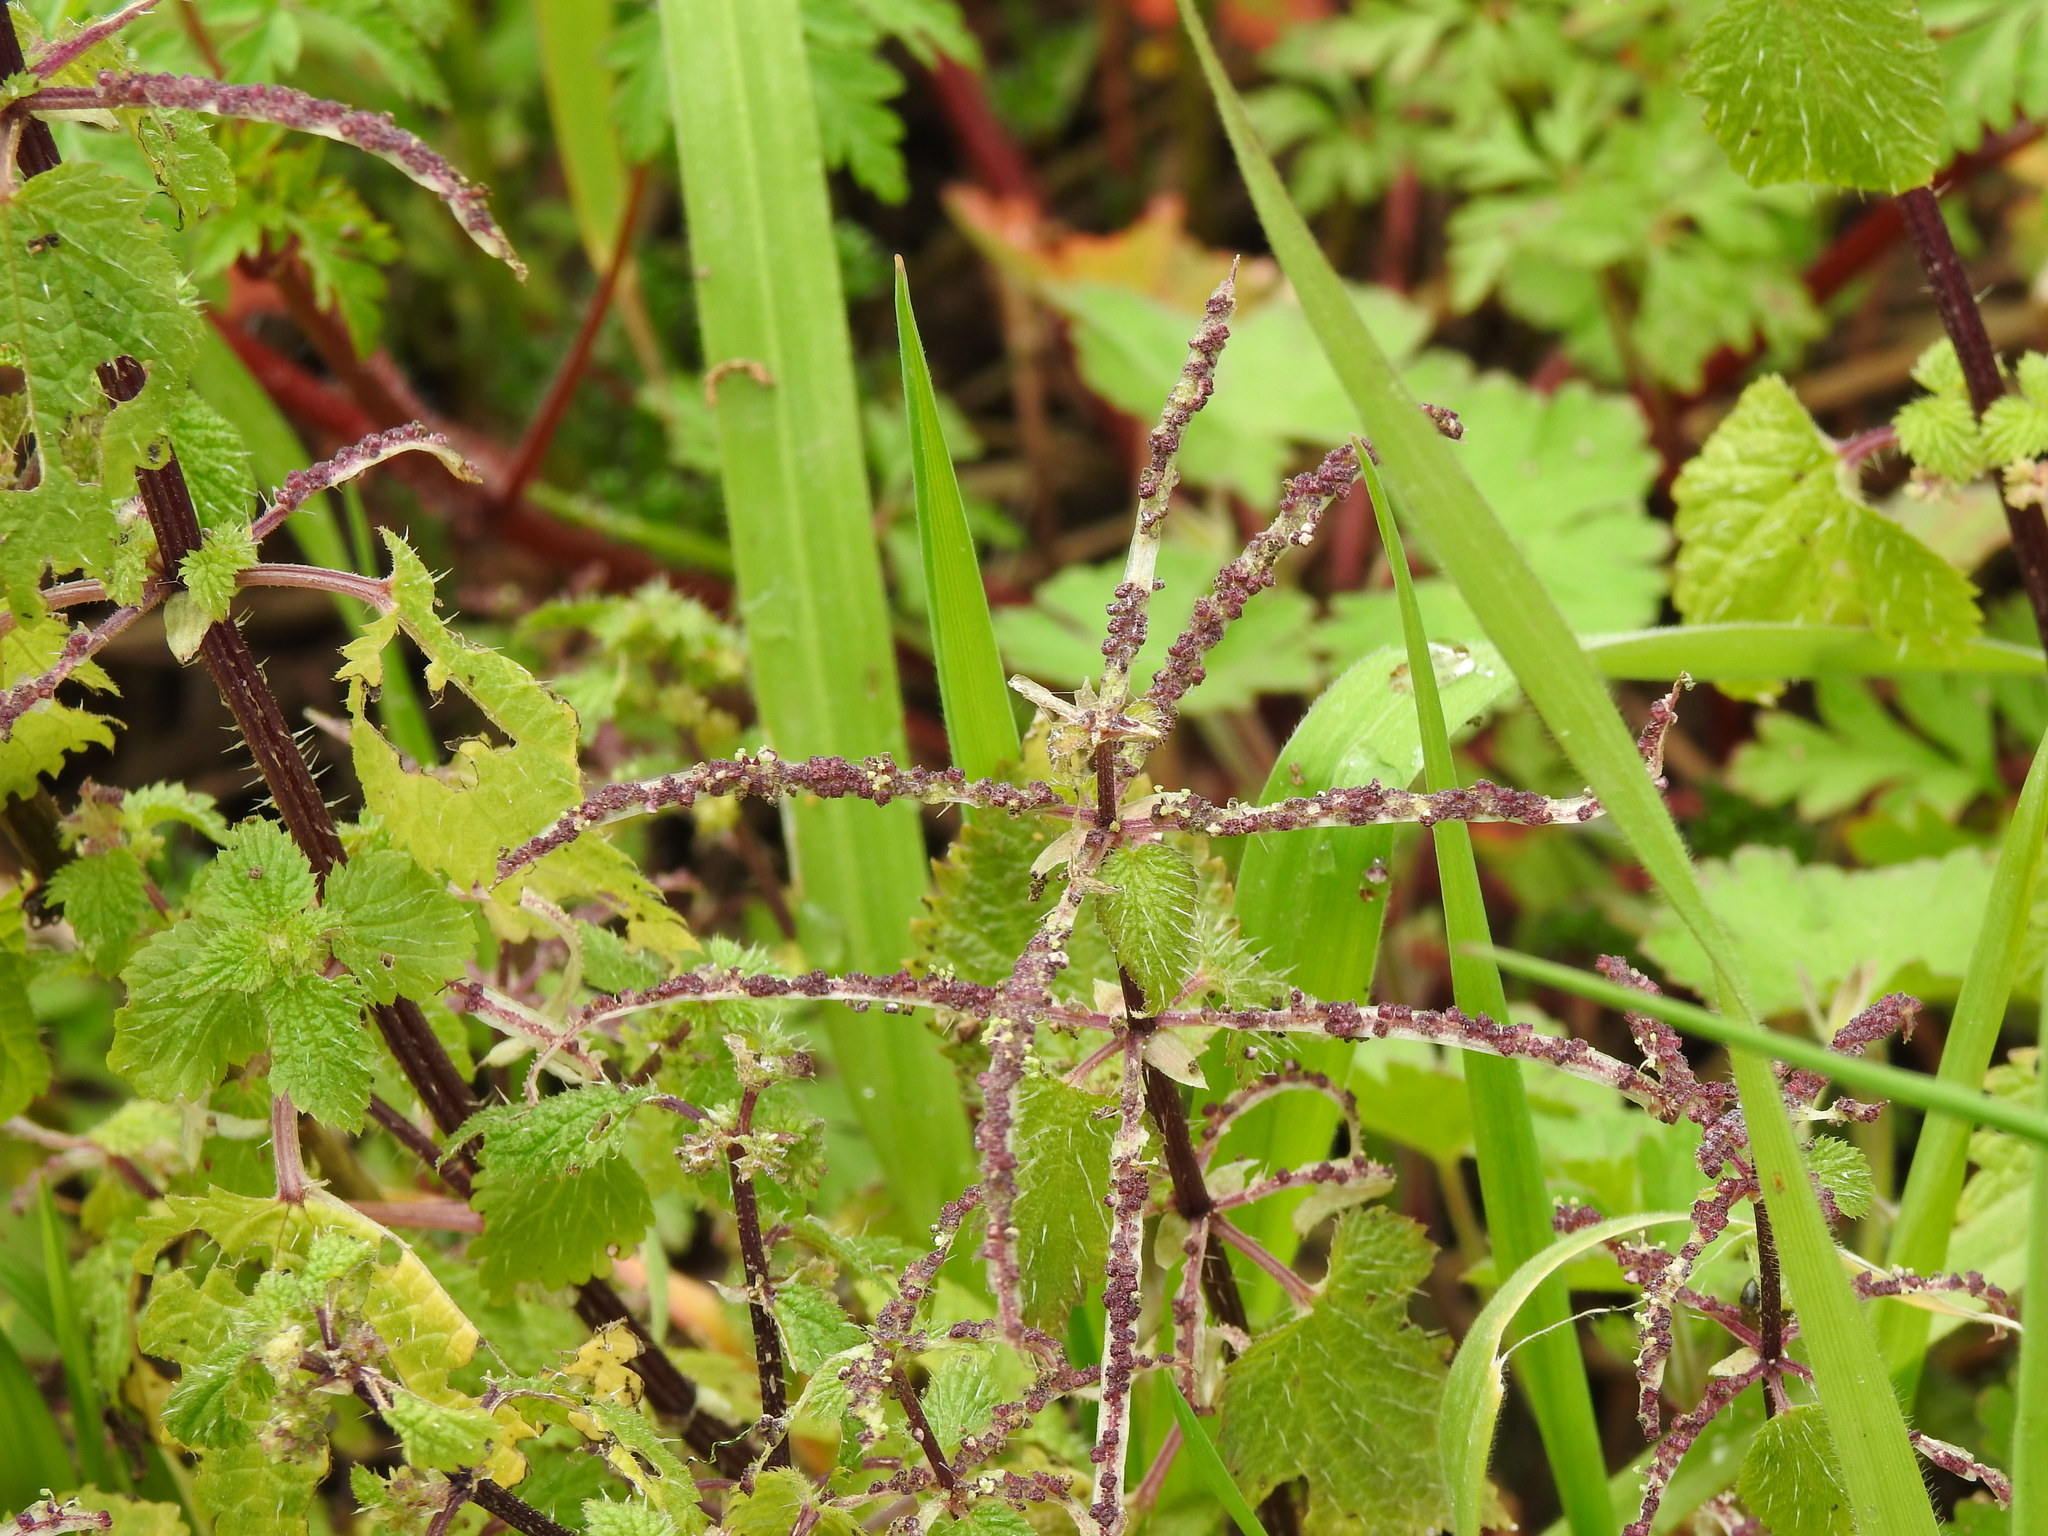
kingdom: Plantae
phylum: Tracheophyta
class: Magnoliopsida
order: Rosales
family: Urticaceae
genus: Urtica
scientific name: Urtica membranacea
